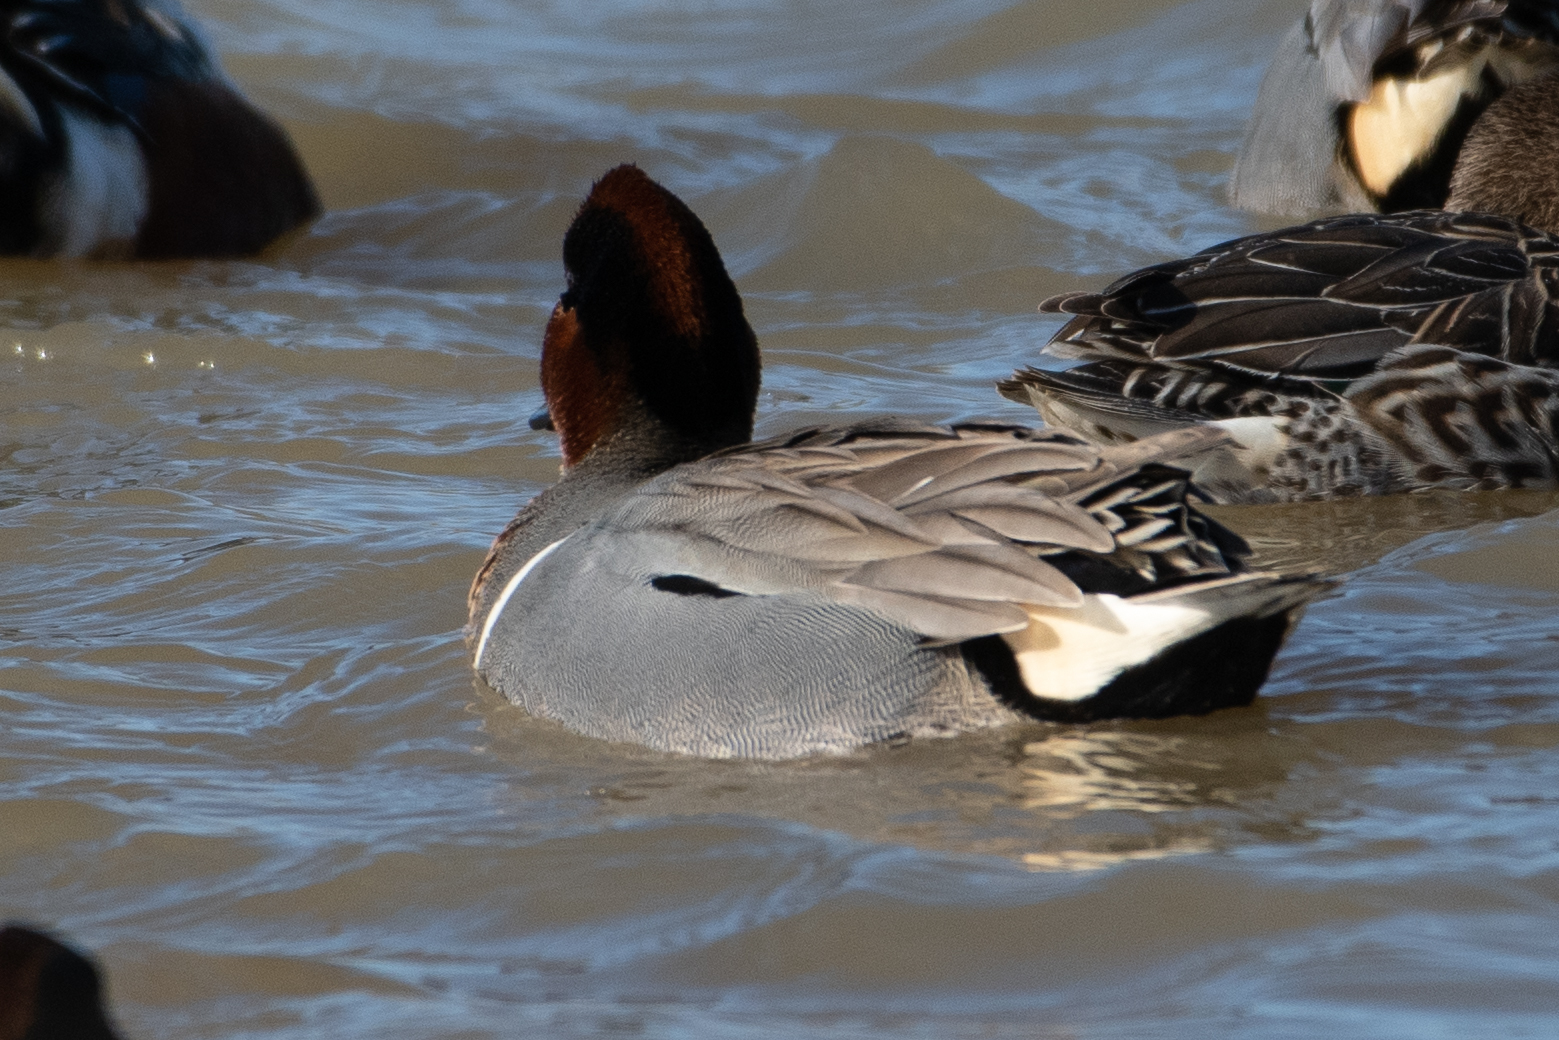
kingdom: Animalia
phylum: Chordata
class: Aves
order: Anseriformes
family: Anatidae
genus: Anas
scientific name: Anas crecca
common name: Eurasian teal
